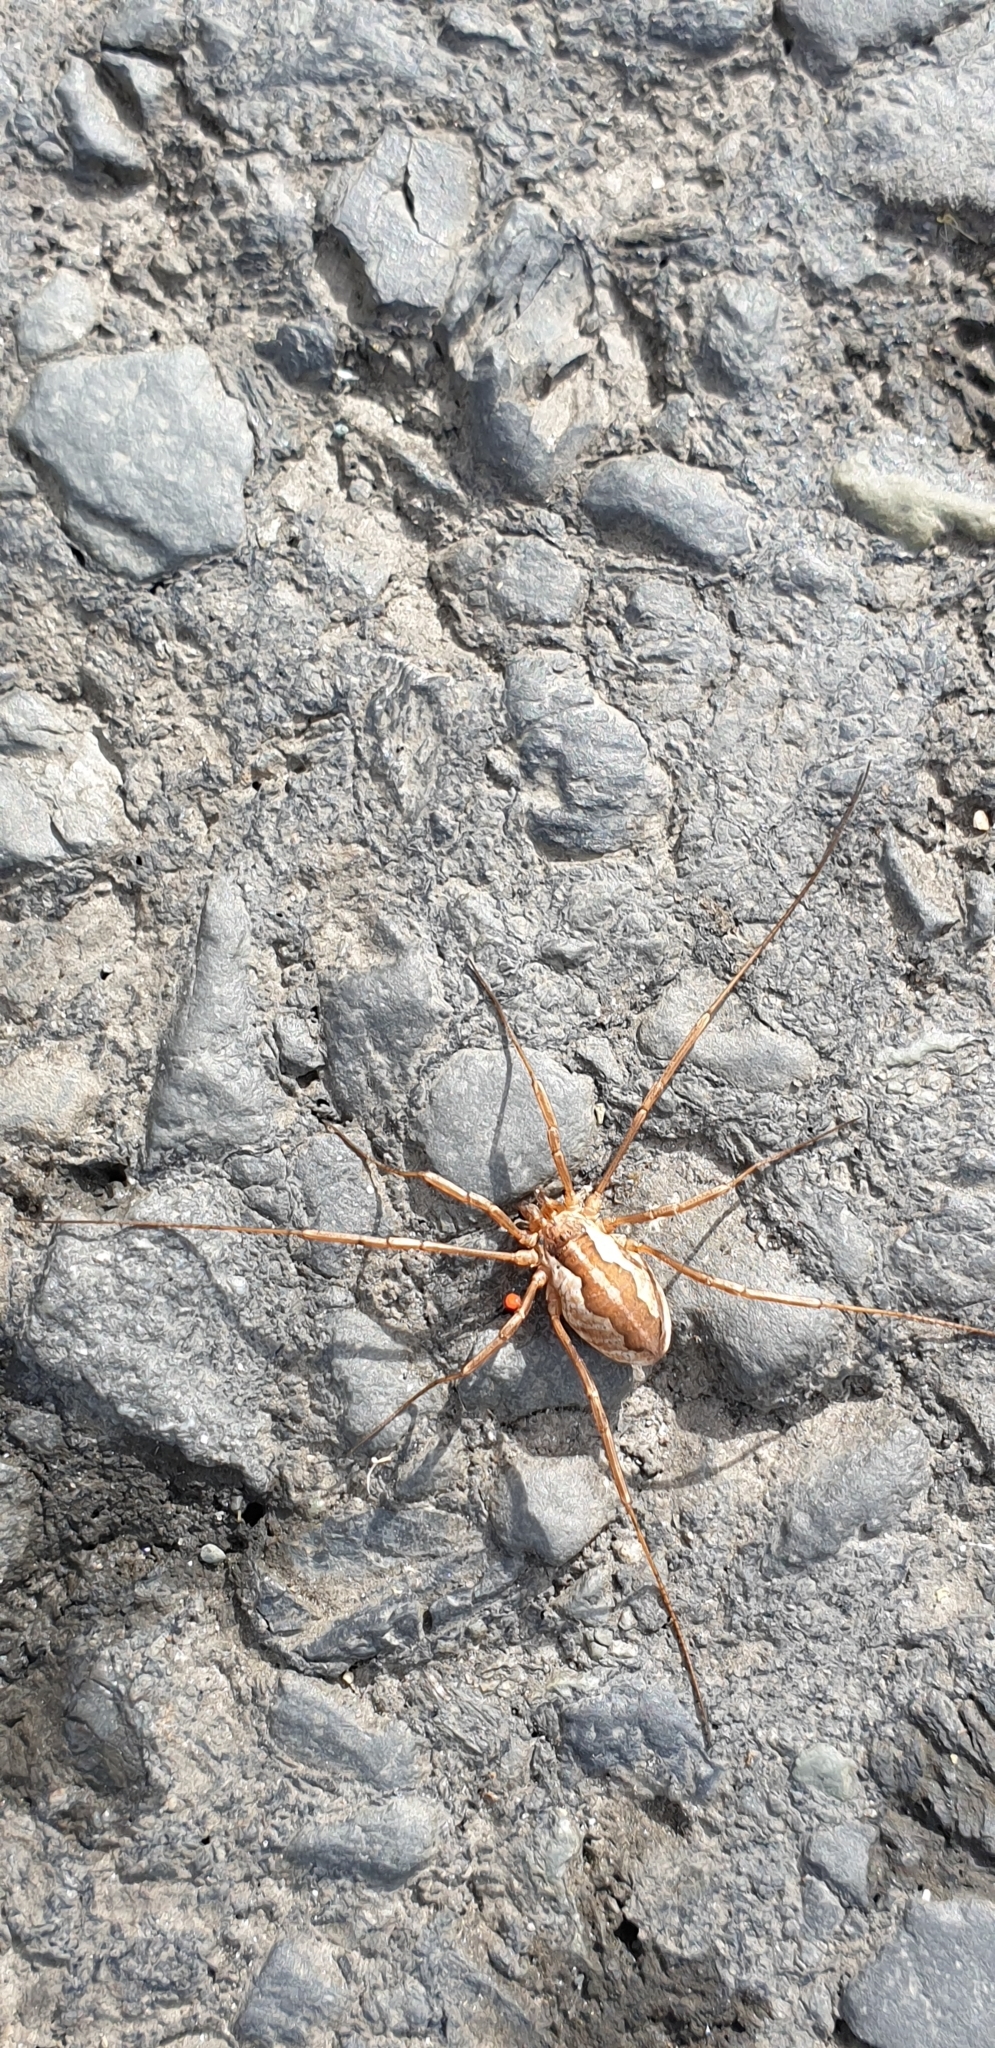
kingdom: Animalia
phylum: Arthropoda
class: Arachnida
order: Opiliones
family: Phalangiidae
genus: Mitopus
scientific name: Mitopus morio
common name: Saddleback harvestman
